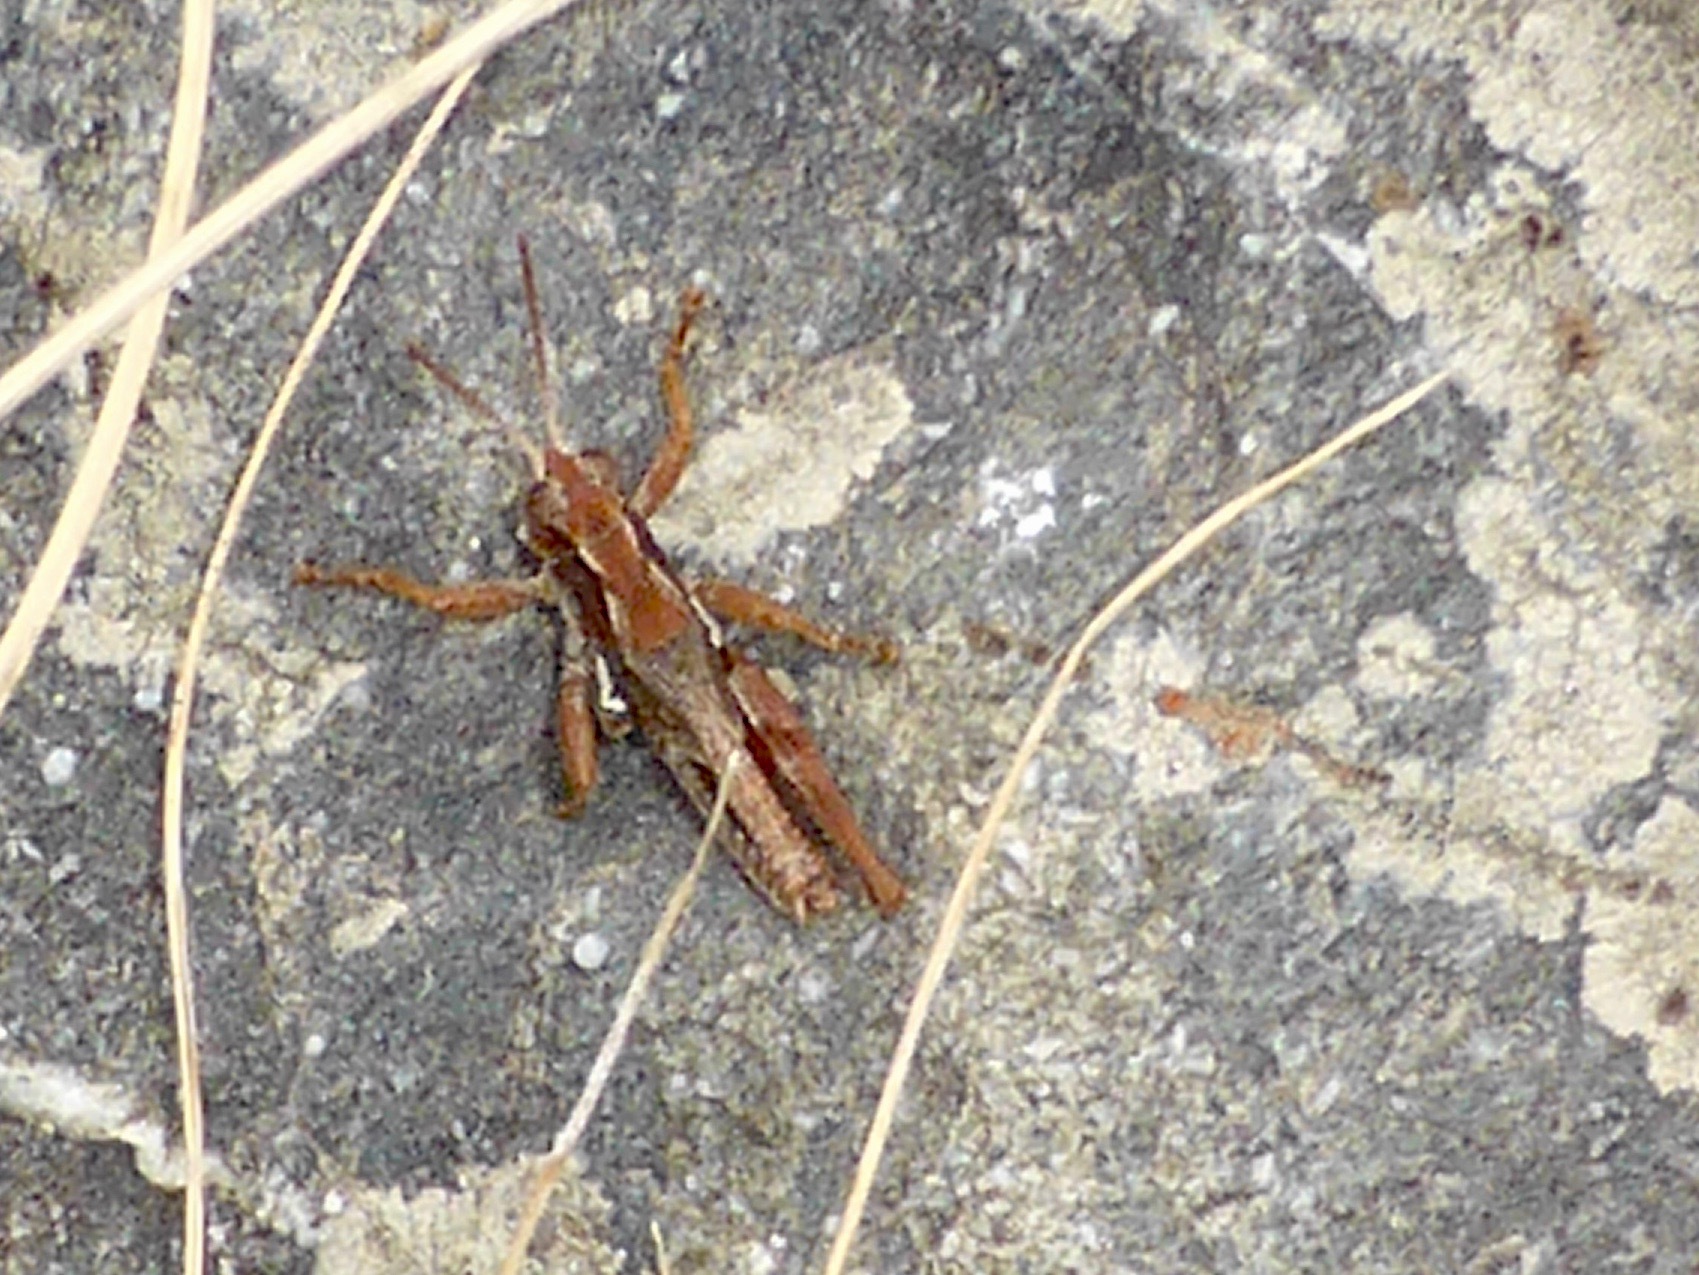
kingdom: Animalia
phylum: Arthropoda
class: Insecta
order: Orthoptera
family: Acrididae
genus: Phaulacridium
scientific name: Phaulacridium marginale
